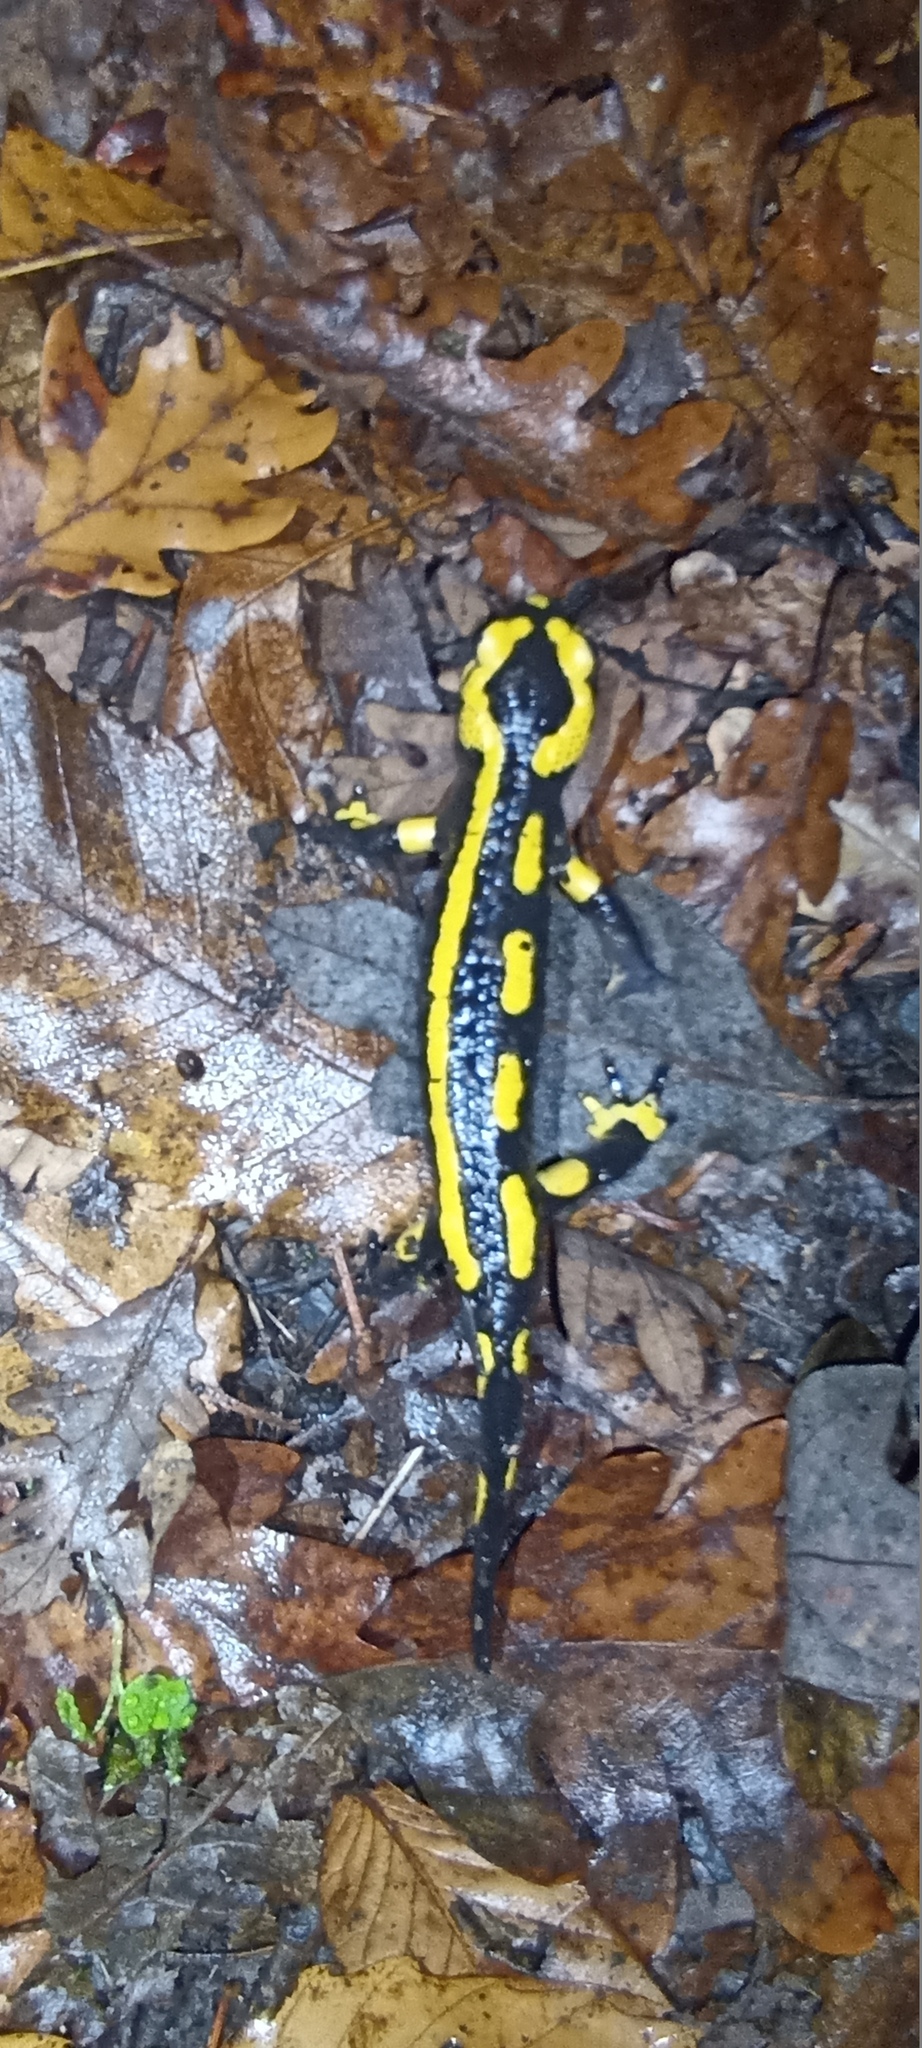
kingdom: Animalia
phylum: Chordata
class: Amphibia
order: Caudata
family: Salamandridae
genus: Salamandra
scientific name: Salamandra salamandra
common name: Fire salamander
